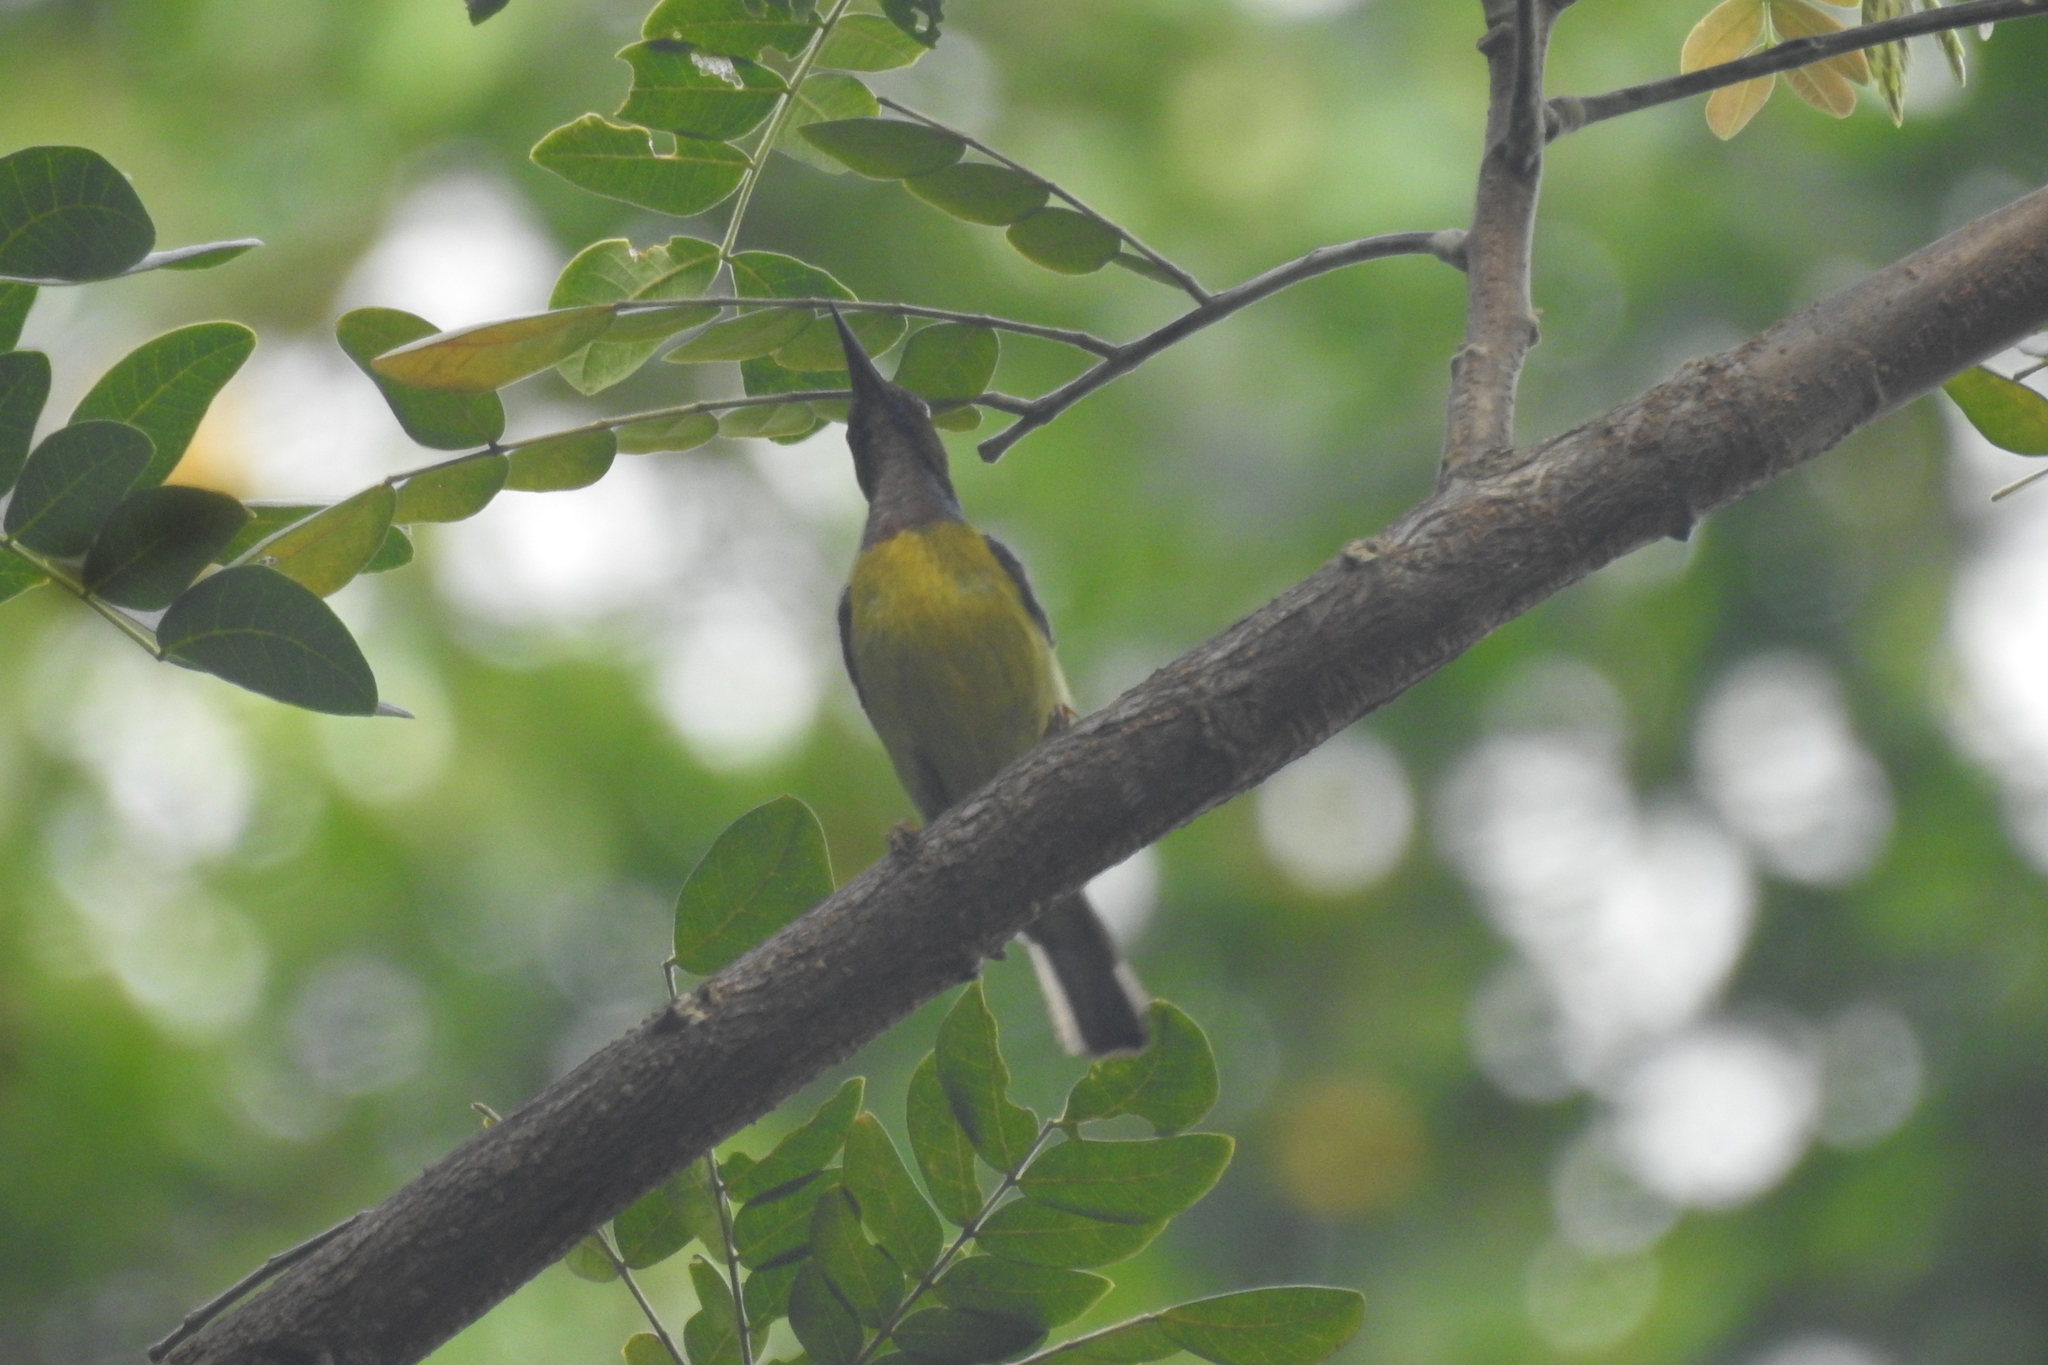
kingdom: Animalia
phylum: Chordata
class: Aves
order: Passeriformes
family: Nectariniidae
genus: Anthreptes
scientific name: Anthreptes malacensis
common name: Brown-throated sunbird
